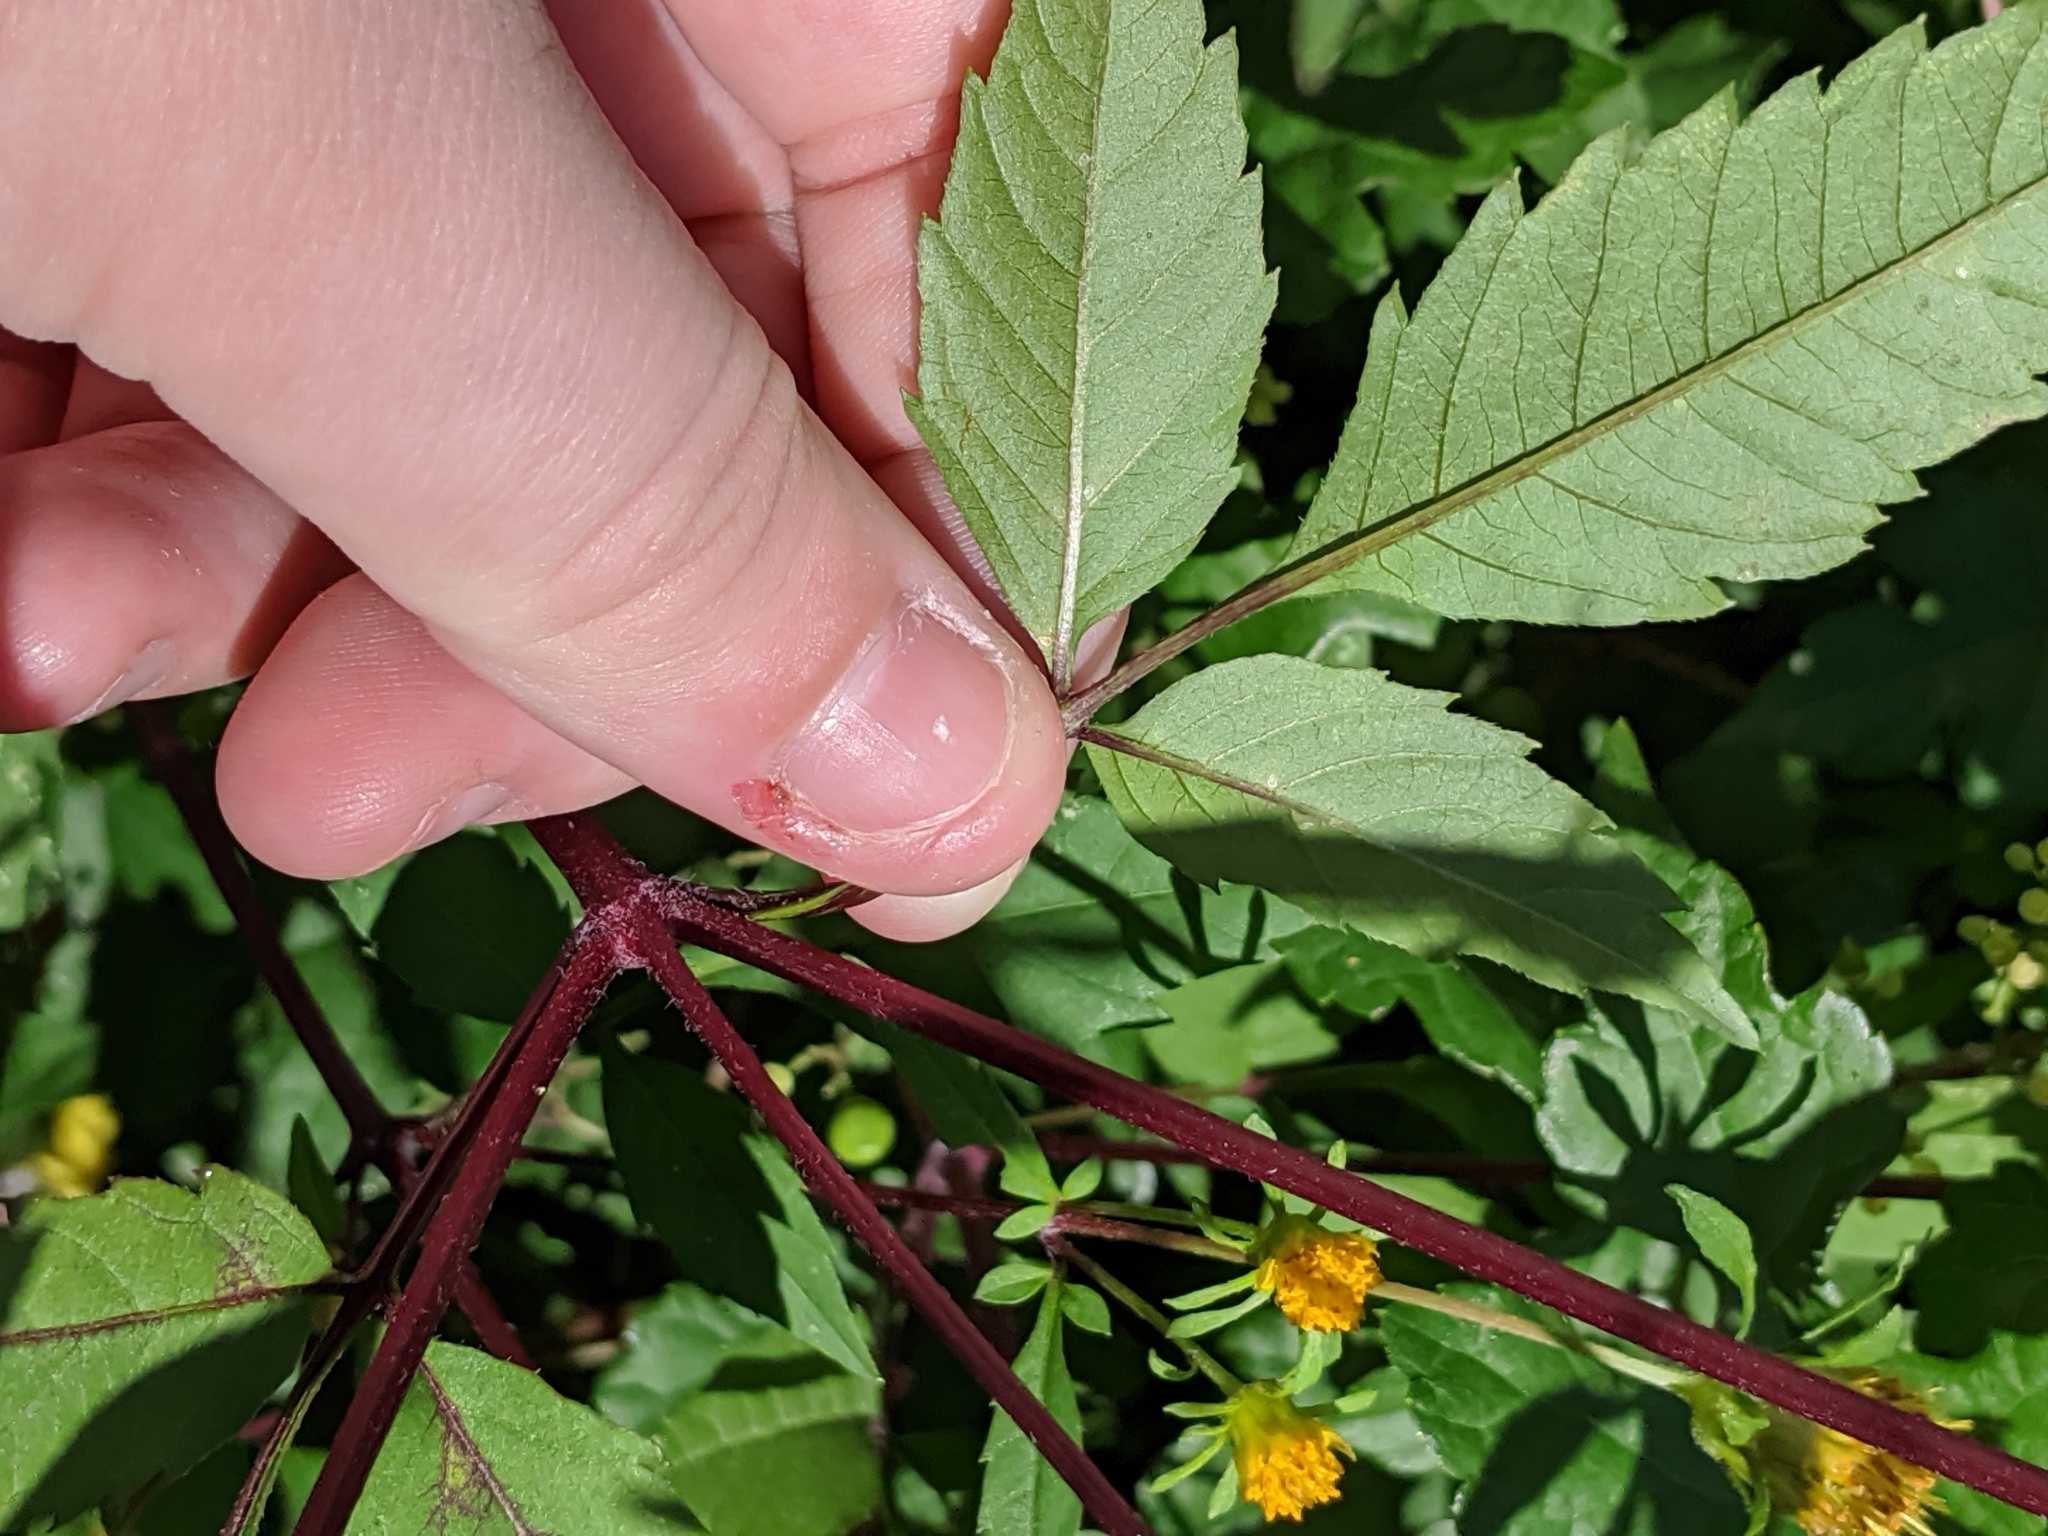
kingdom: Plantae
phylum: Tracheophyta
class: Magnoliopsida
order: Asterales
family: Asteraceae
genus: Bidens
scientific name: Bidens frondosa
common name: Beggarticks
